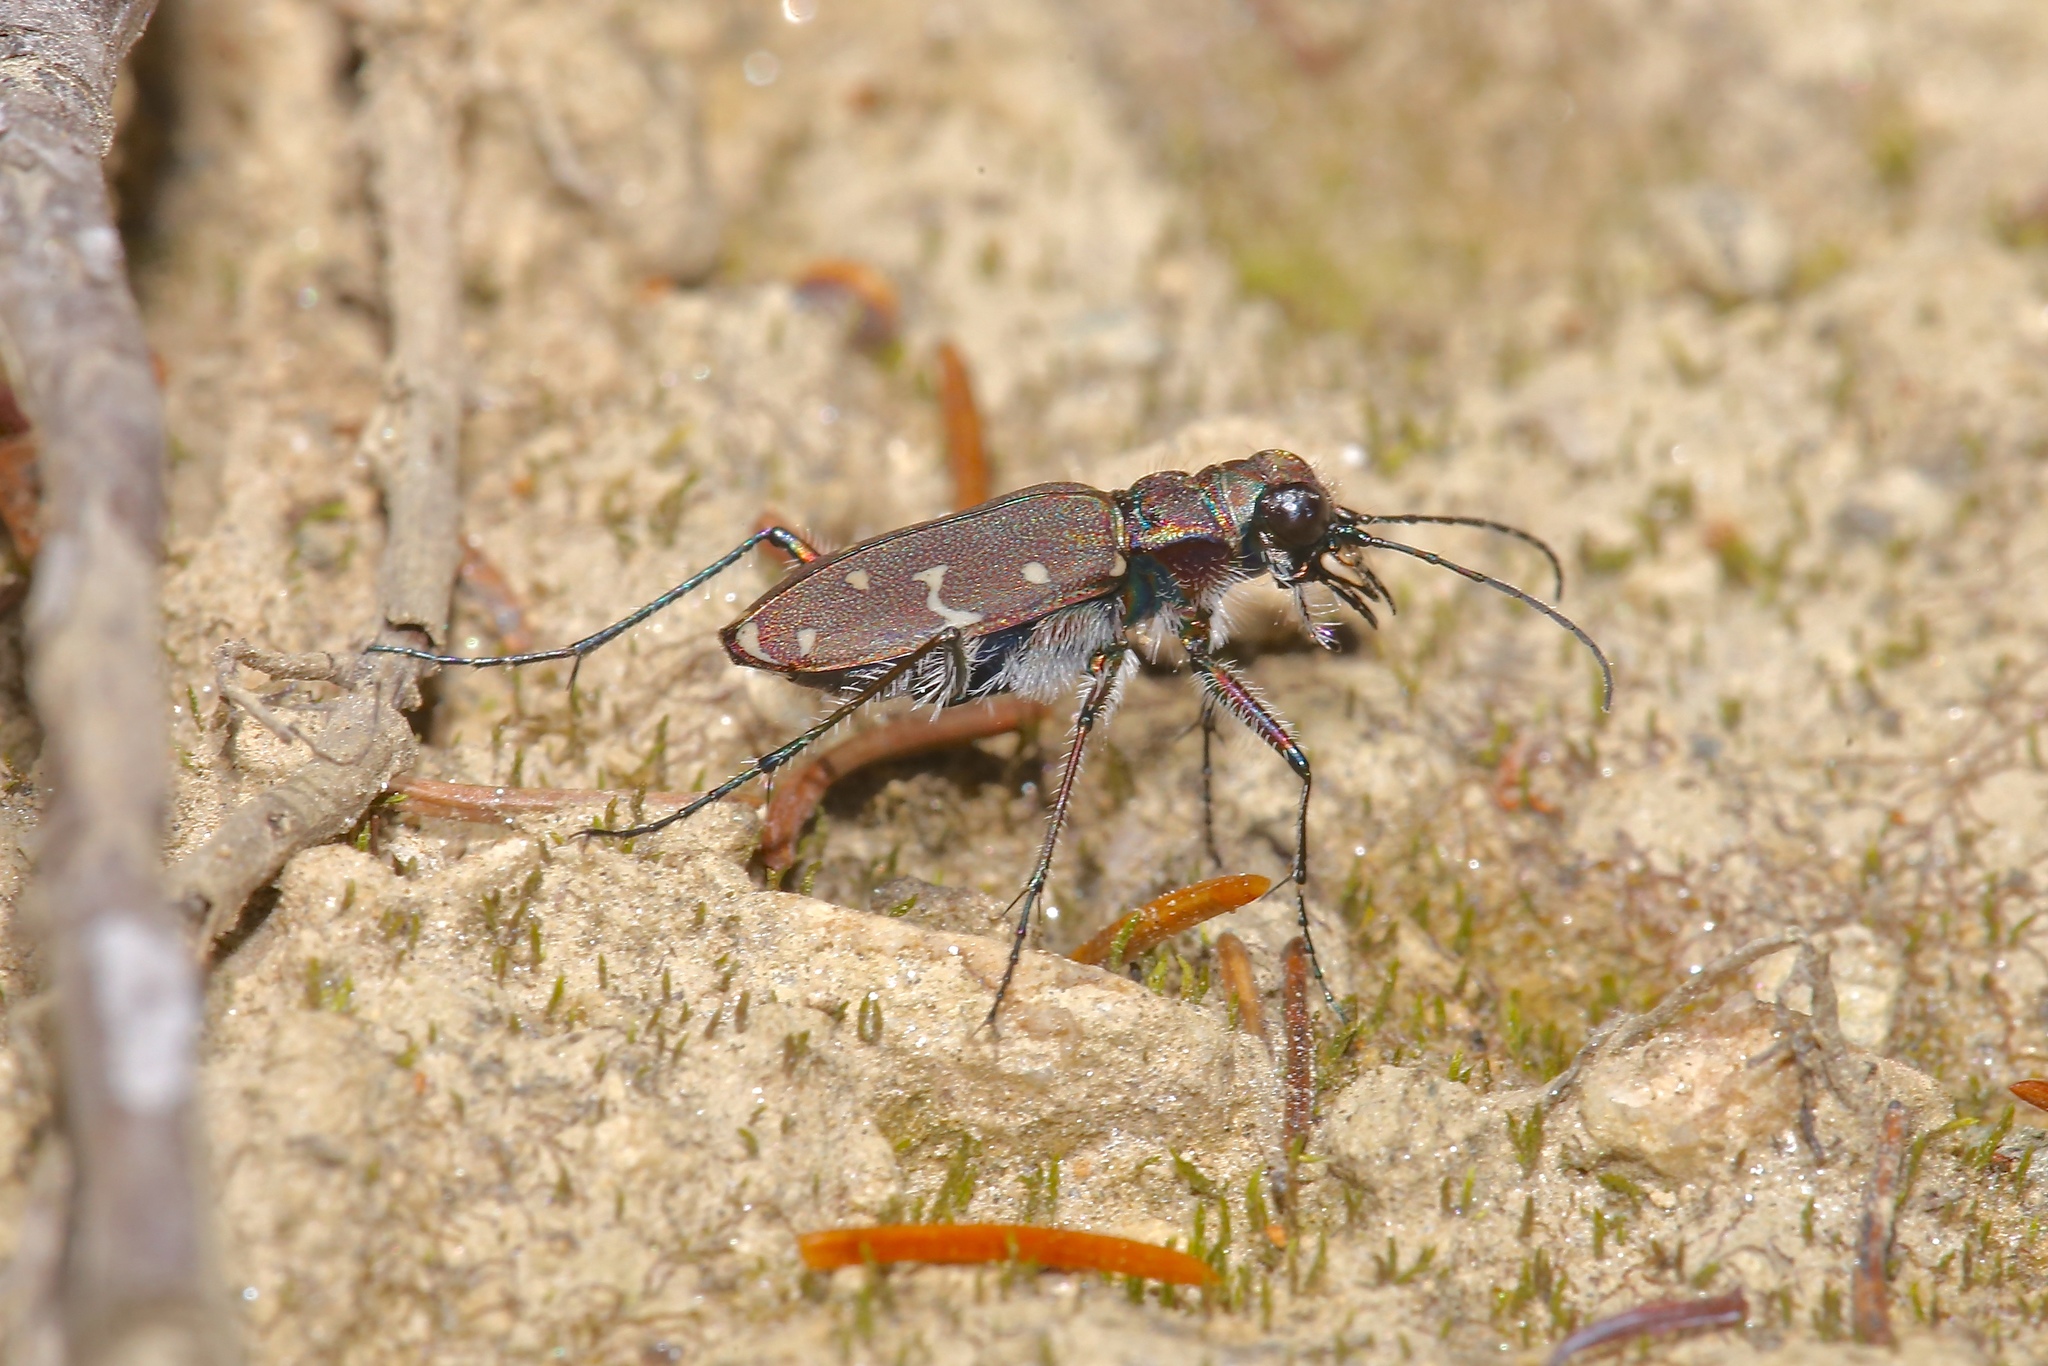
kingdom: Animalia
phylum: Arthropoda
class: Insecta
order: Coleoptera
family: Carabidae
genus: Cicindela
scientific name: Cicindela duodecimguttata
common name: Twelve-spotted tiger beetle
